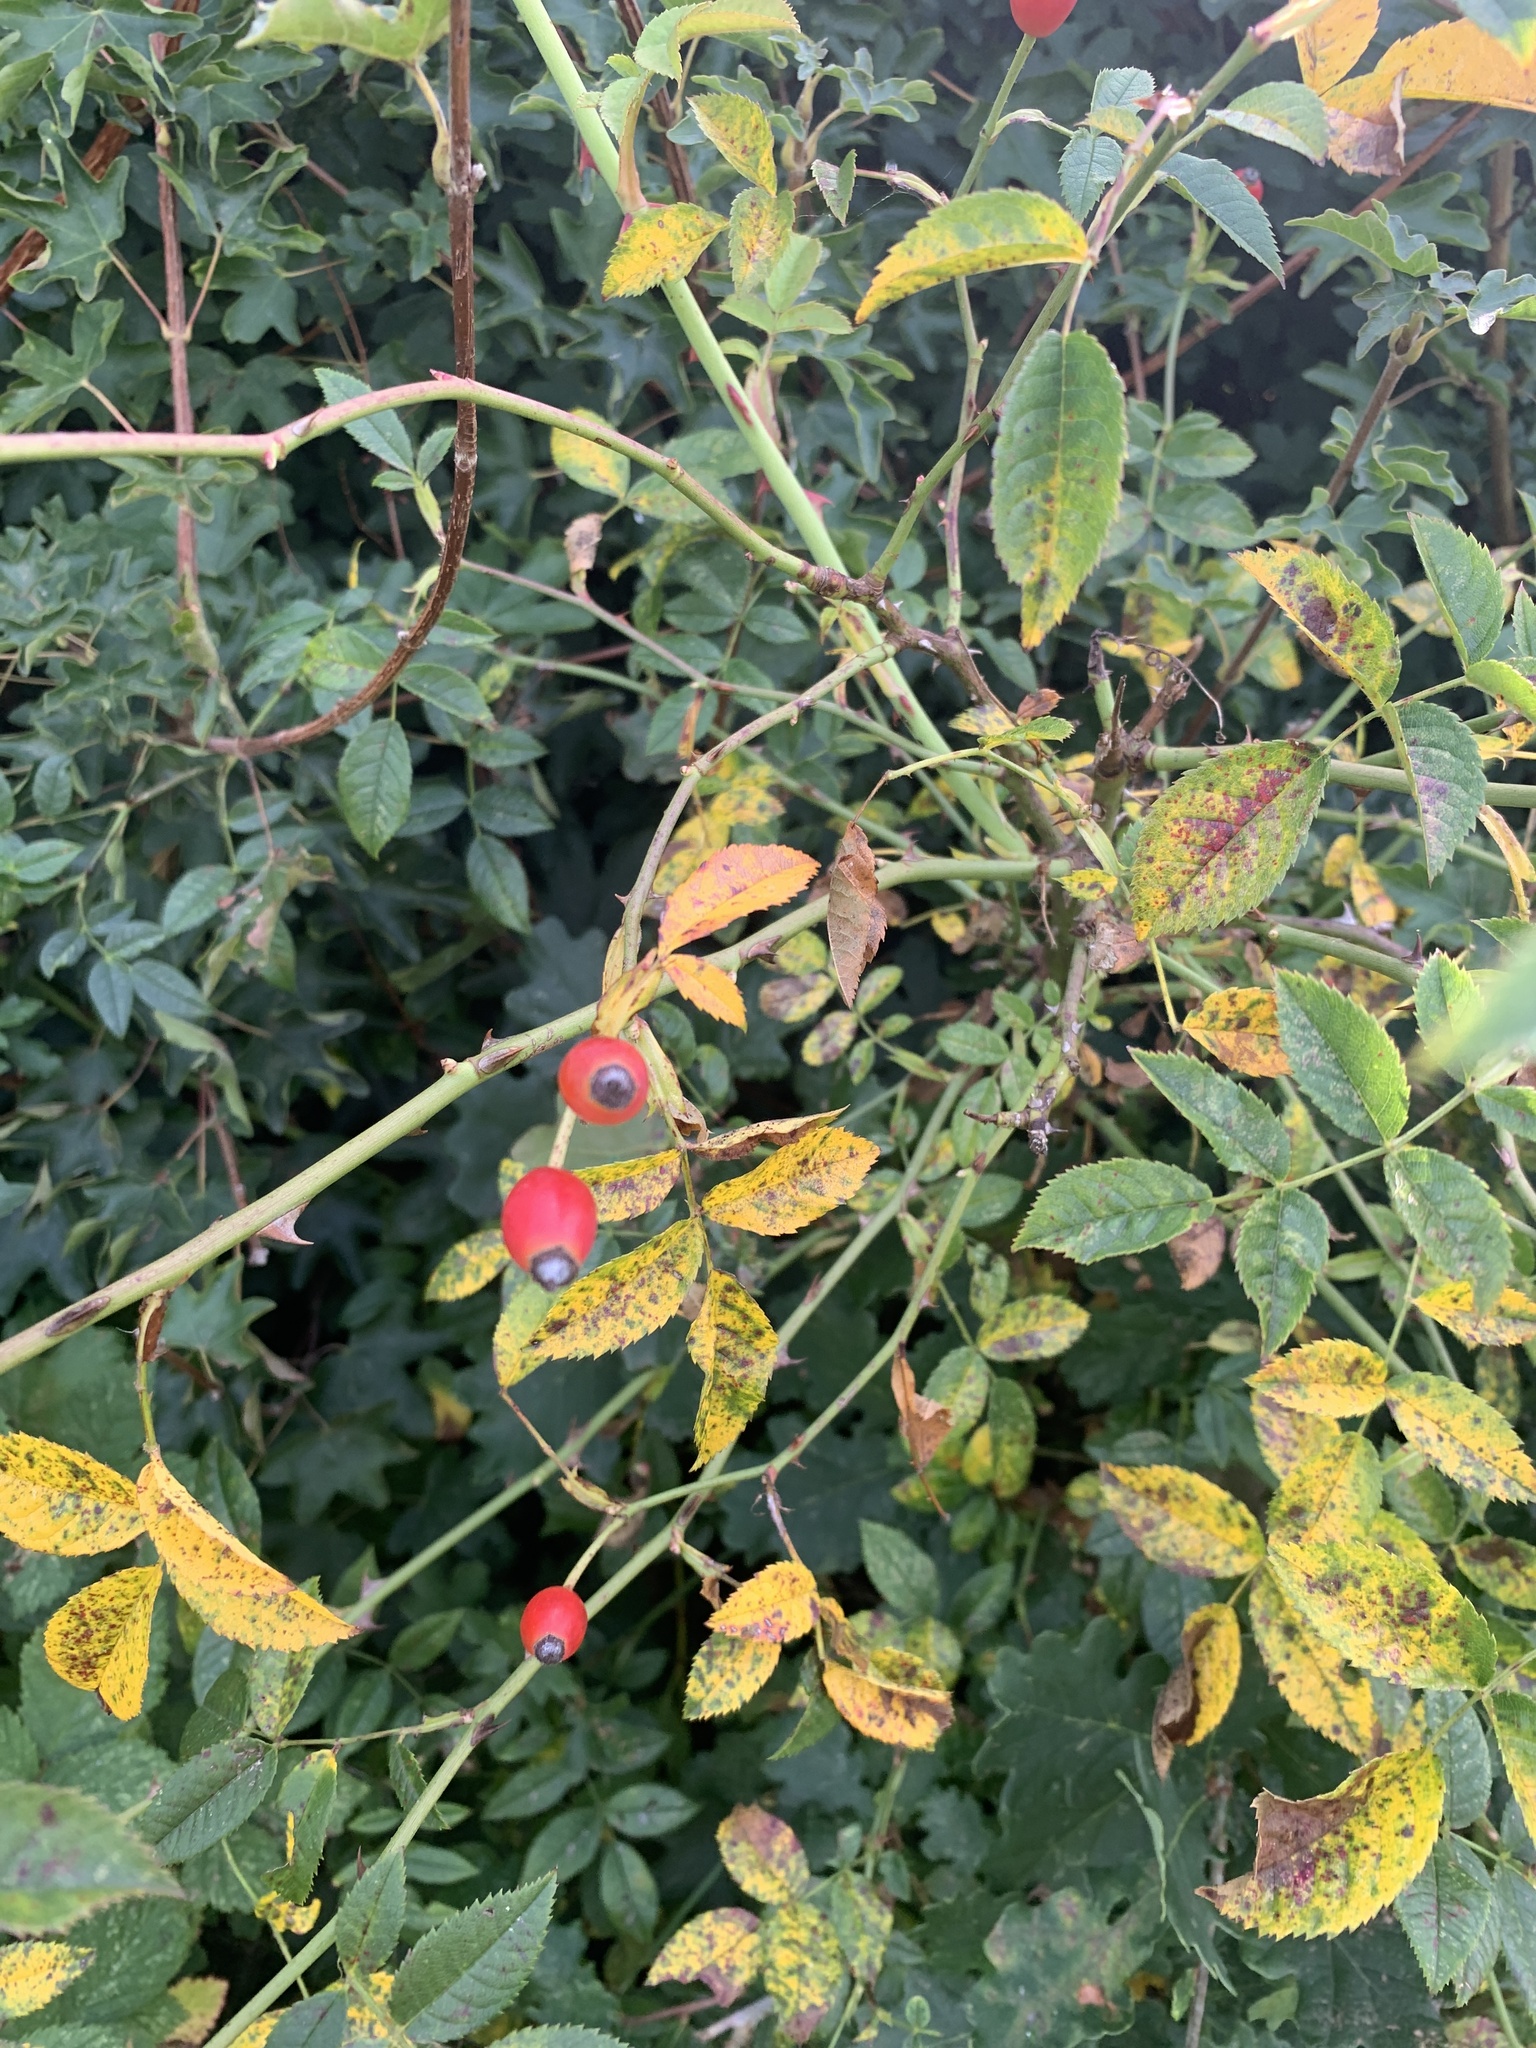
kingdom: Plantae
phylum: Tracheophyta
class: Magnoliopsida
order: Rosales
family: Rosaceae
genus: Rosa
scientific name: Rosa canina
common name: Dog rose
